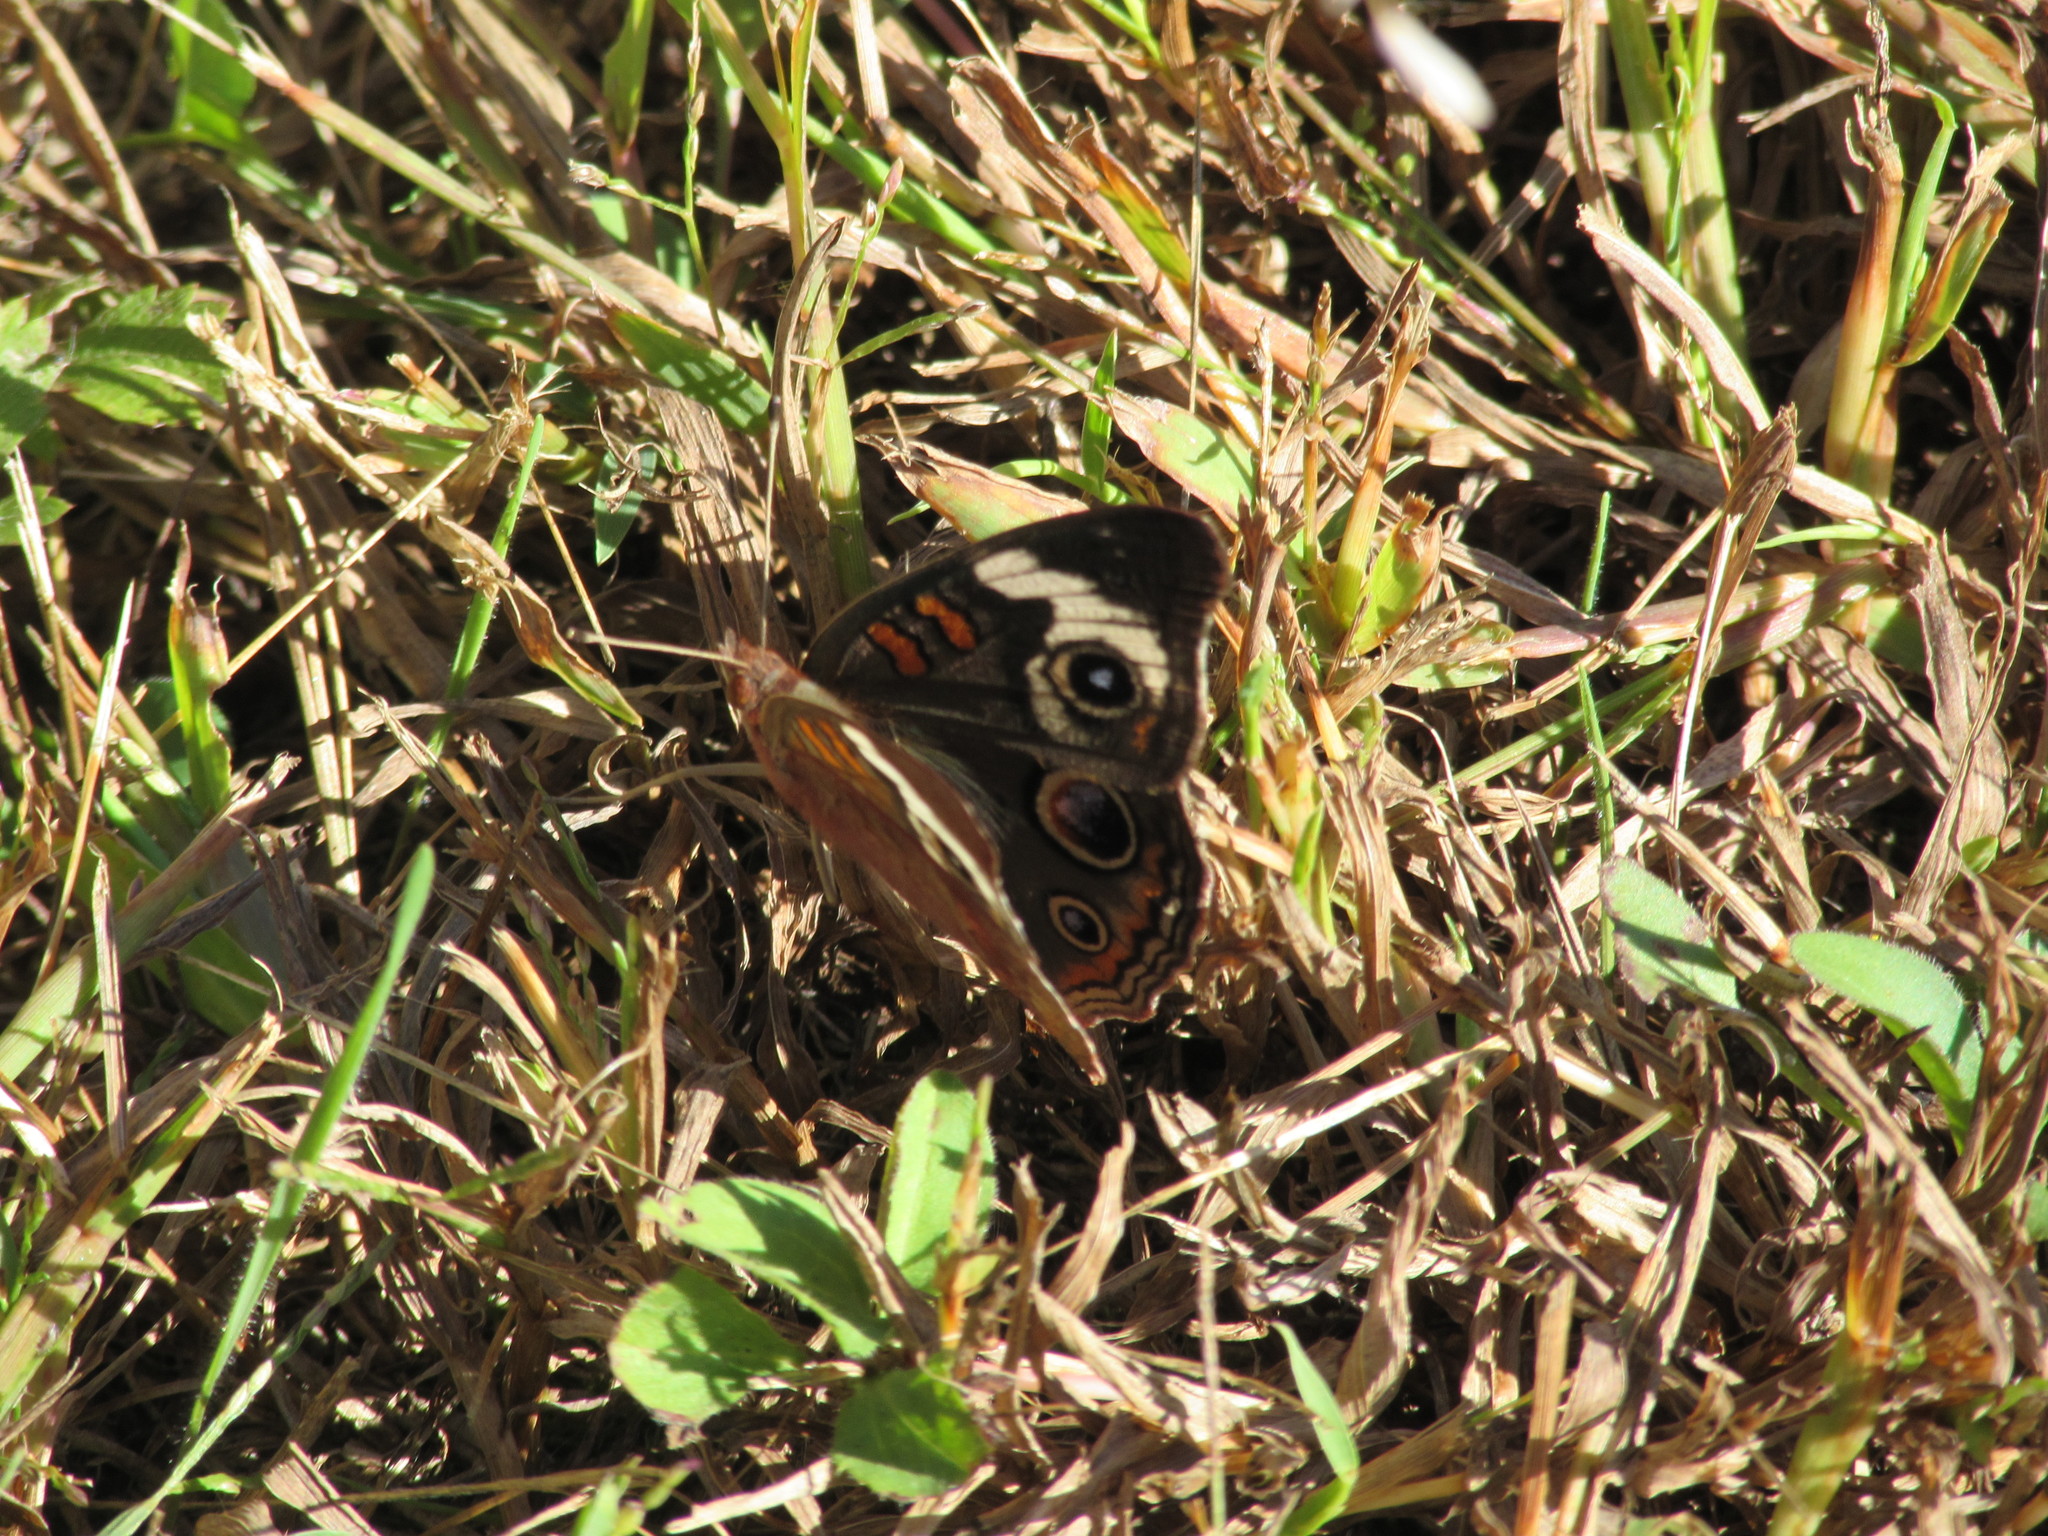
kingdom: Animalia
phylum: Arthropoda
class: Insecta
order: Lepidoptera
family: Nymphalidae
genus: Junonia
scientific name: Junonia coenia
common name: Common buckeye
